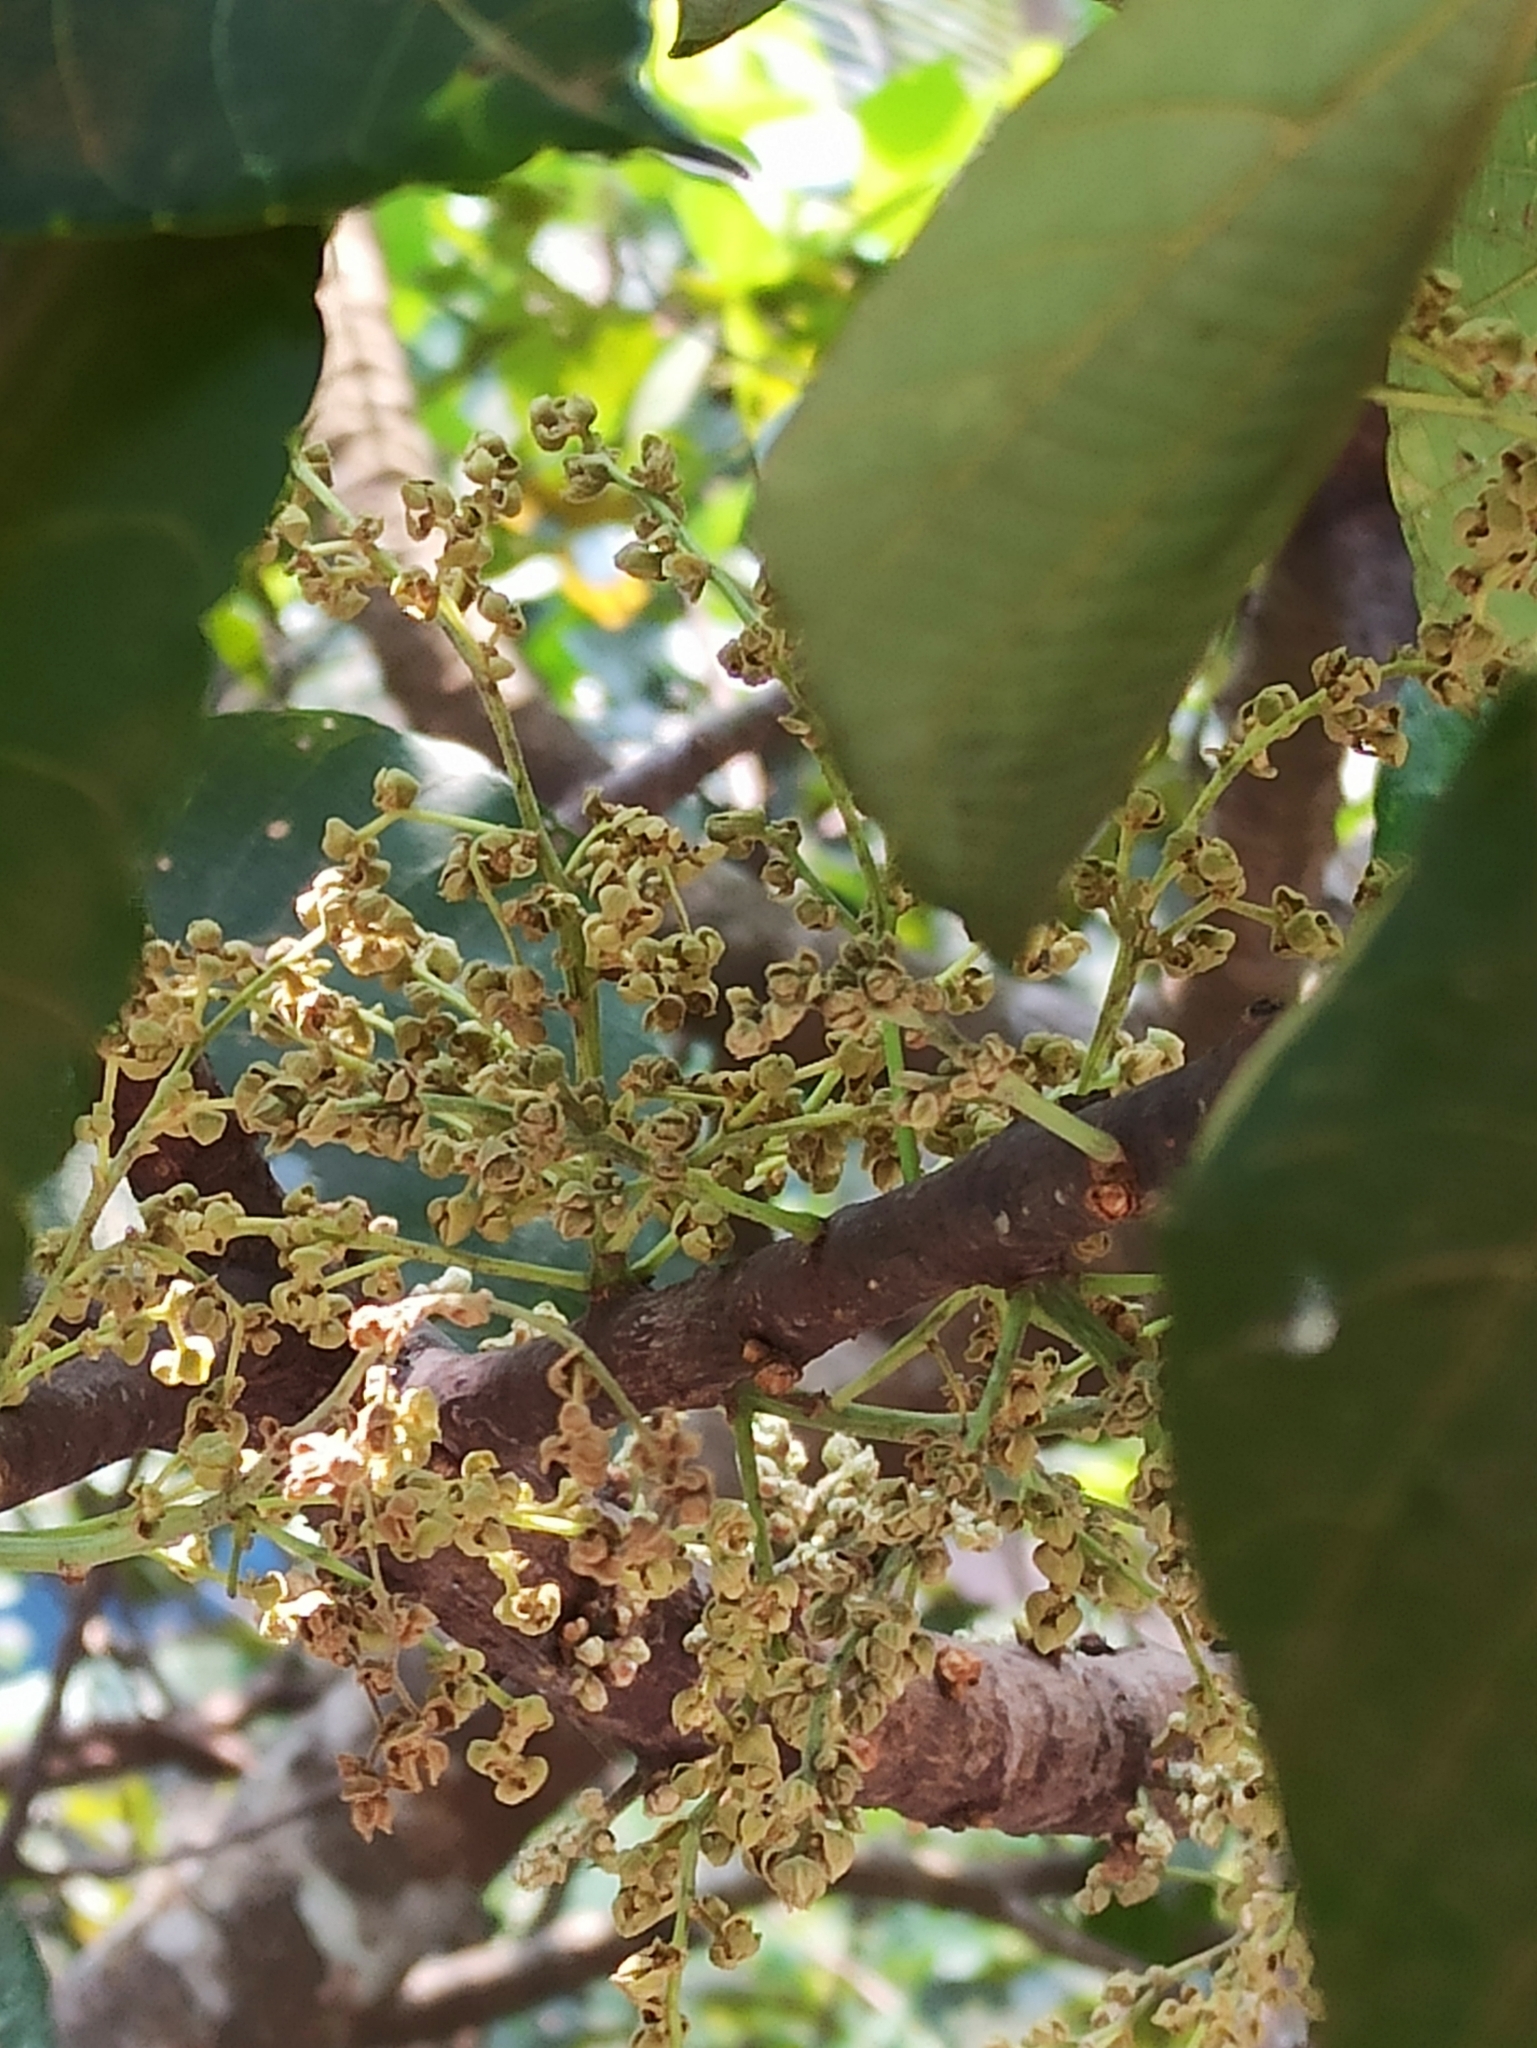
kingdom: Plantae
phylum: Tracheophyta
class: Magnoliopsida
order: Malpighiales
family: Euphorbiaceae
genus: Macaranga
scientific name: Macaranga peltata
